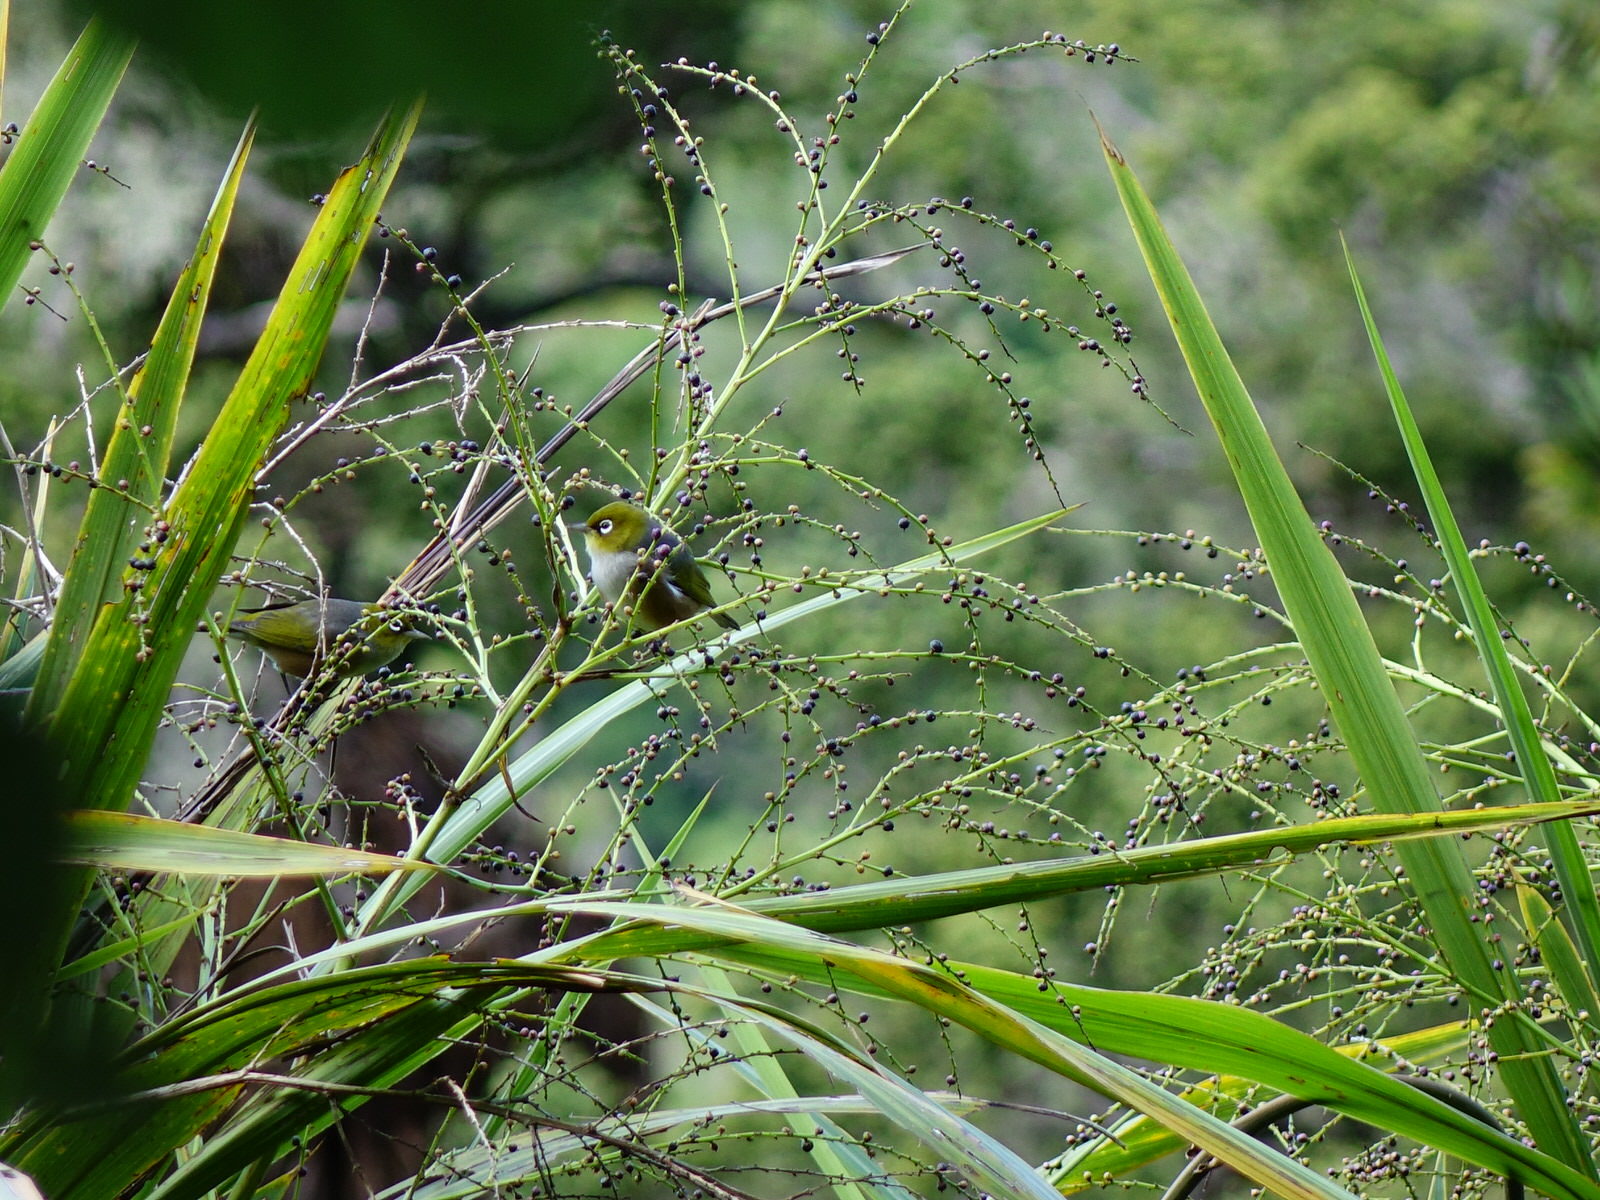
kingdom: Animalia
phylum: Chordata
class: Aves
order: Passeriformes
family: Zosteropidae
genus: Zosterops
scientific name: Zosterops lateralis
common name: Silvereye
